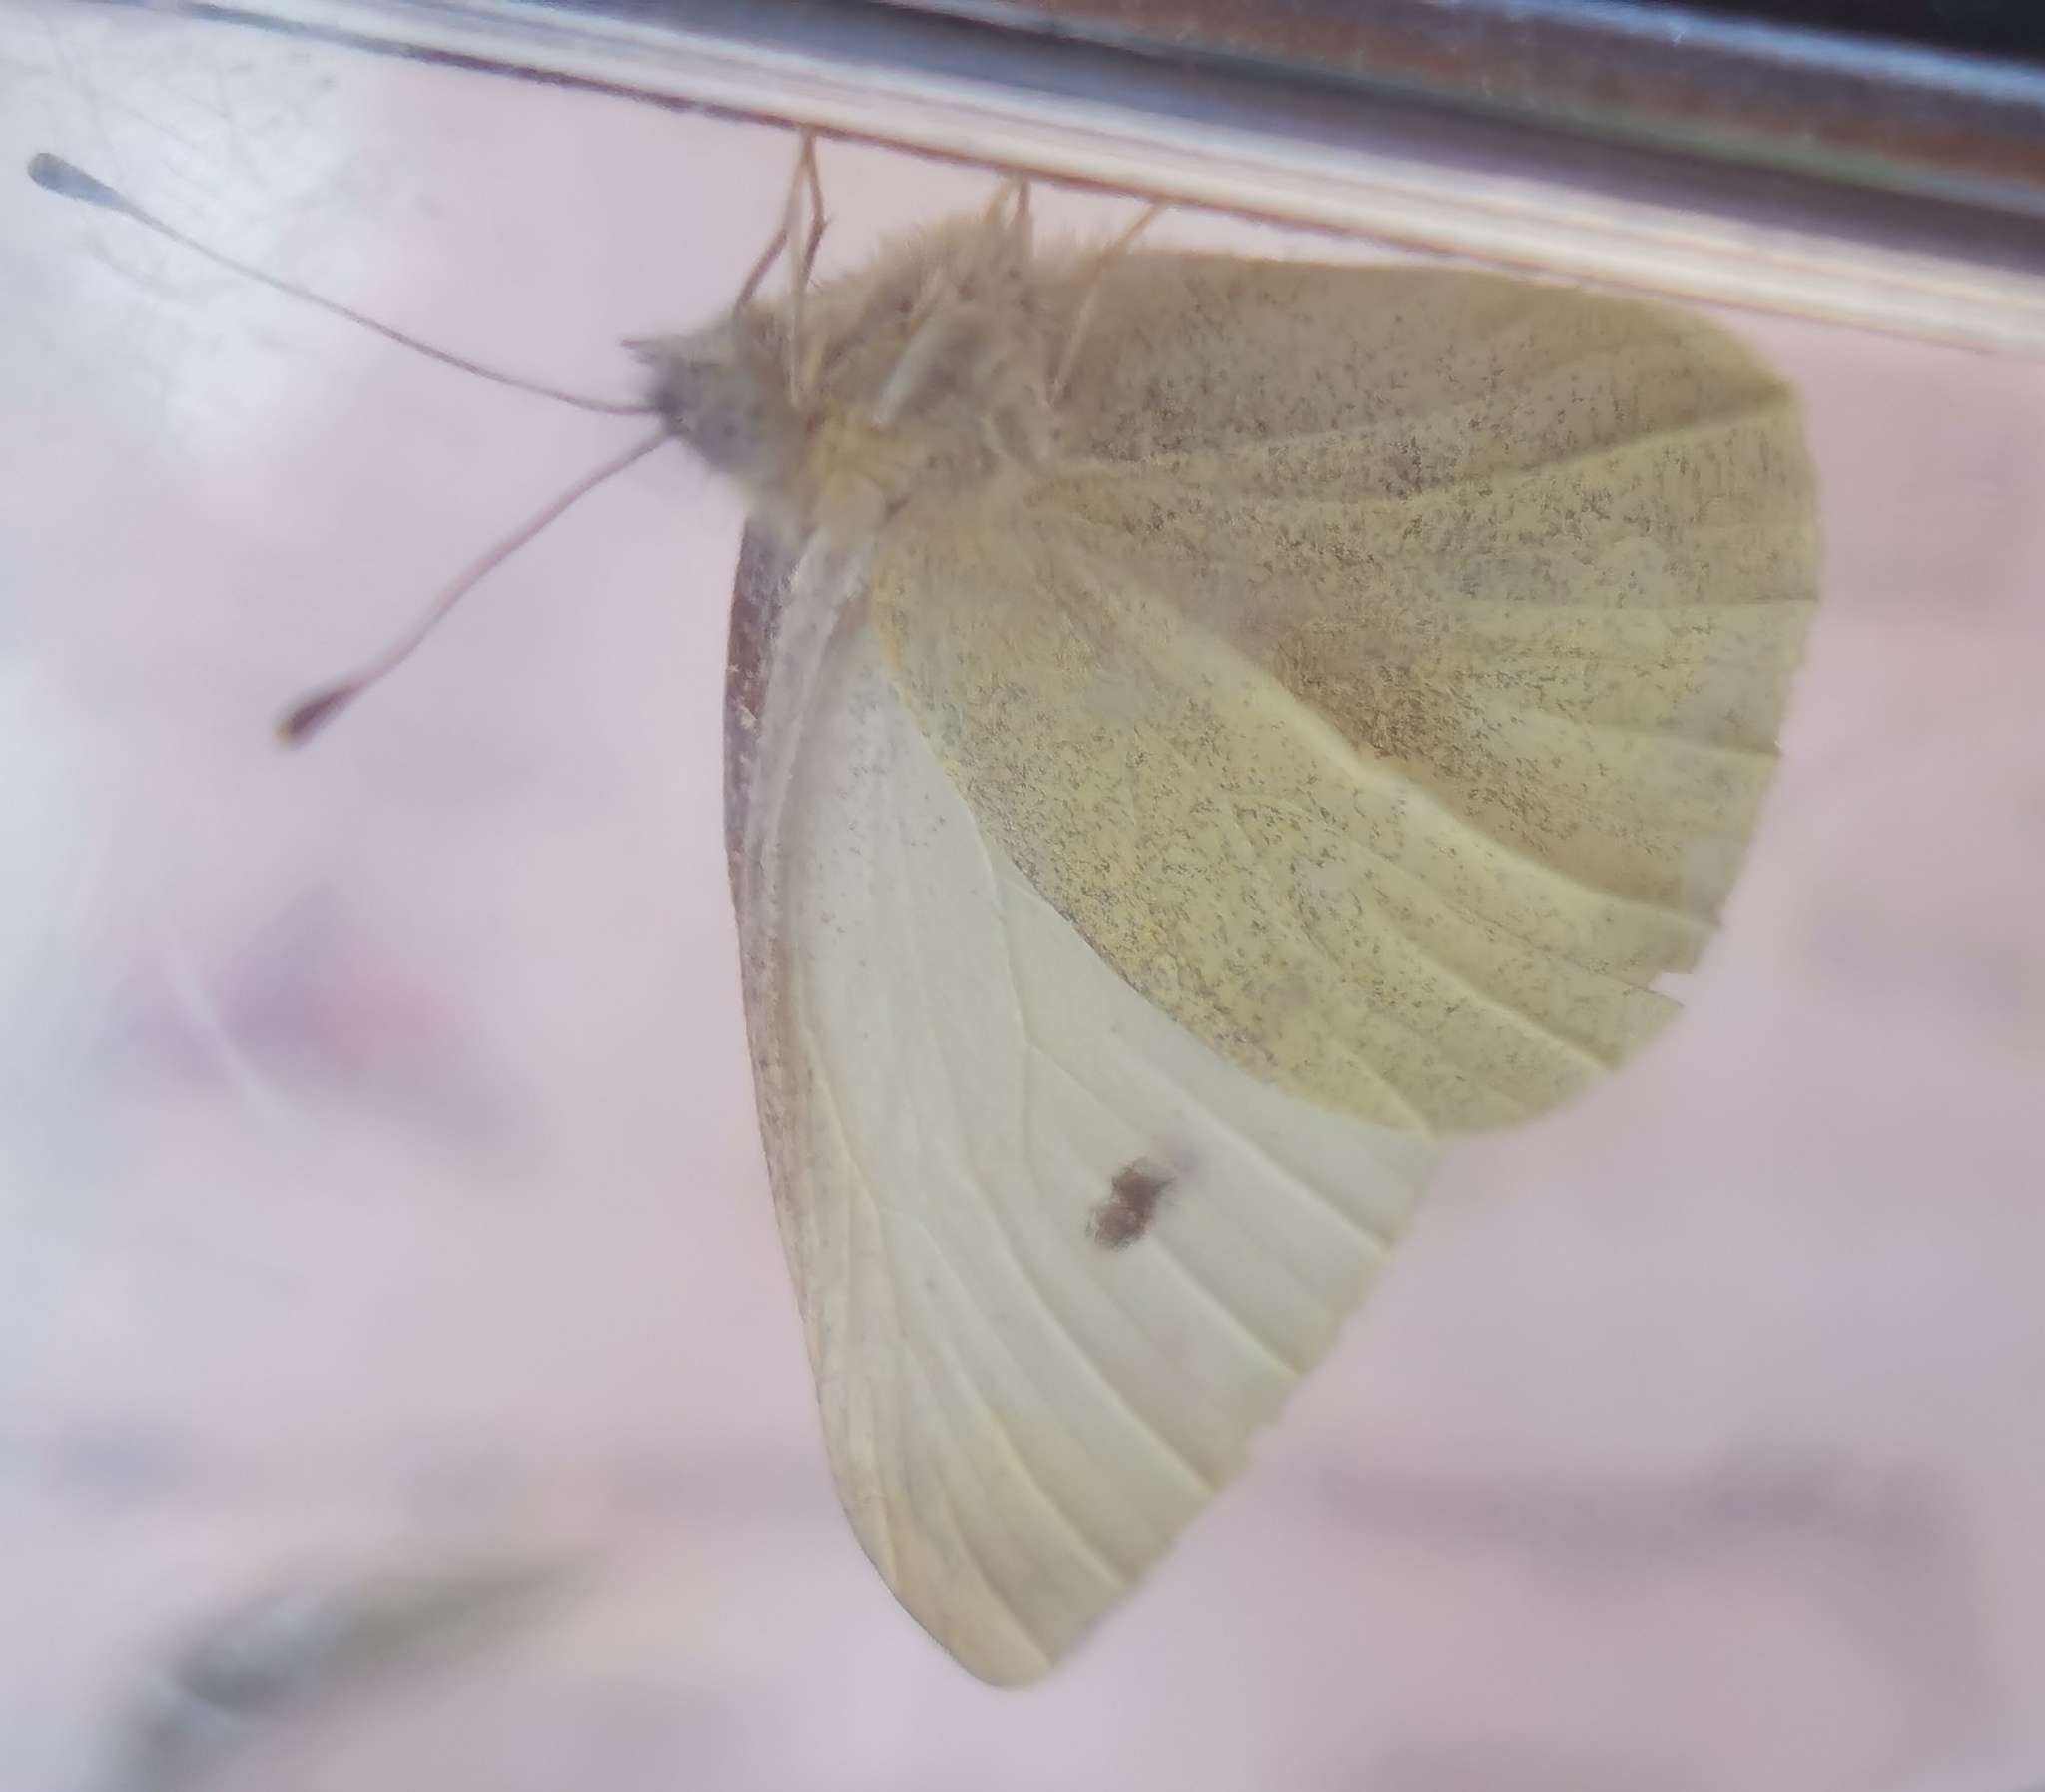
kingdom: Animalia
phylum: Arthropoda
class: Insecta
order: Lepidoptera
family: Pieridae
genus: Pieris
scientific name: Pieris rapae
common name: Small white
